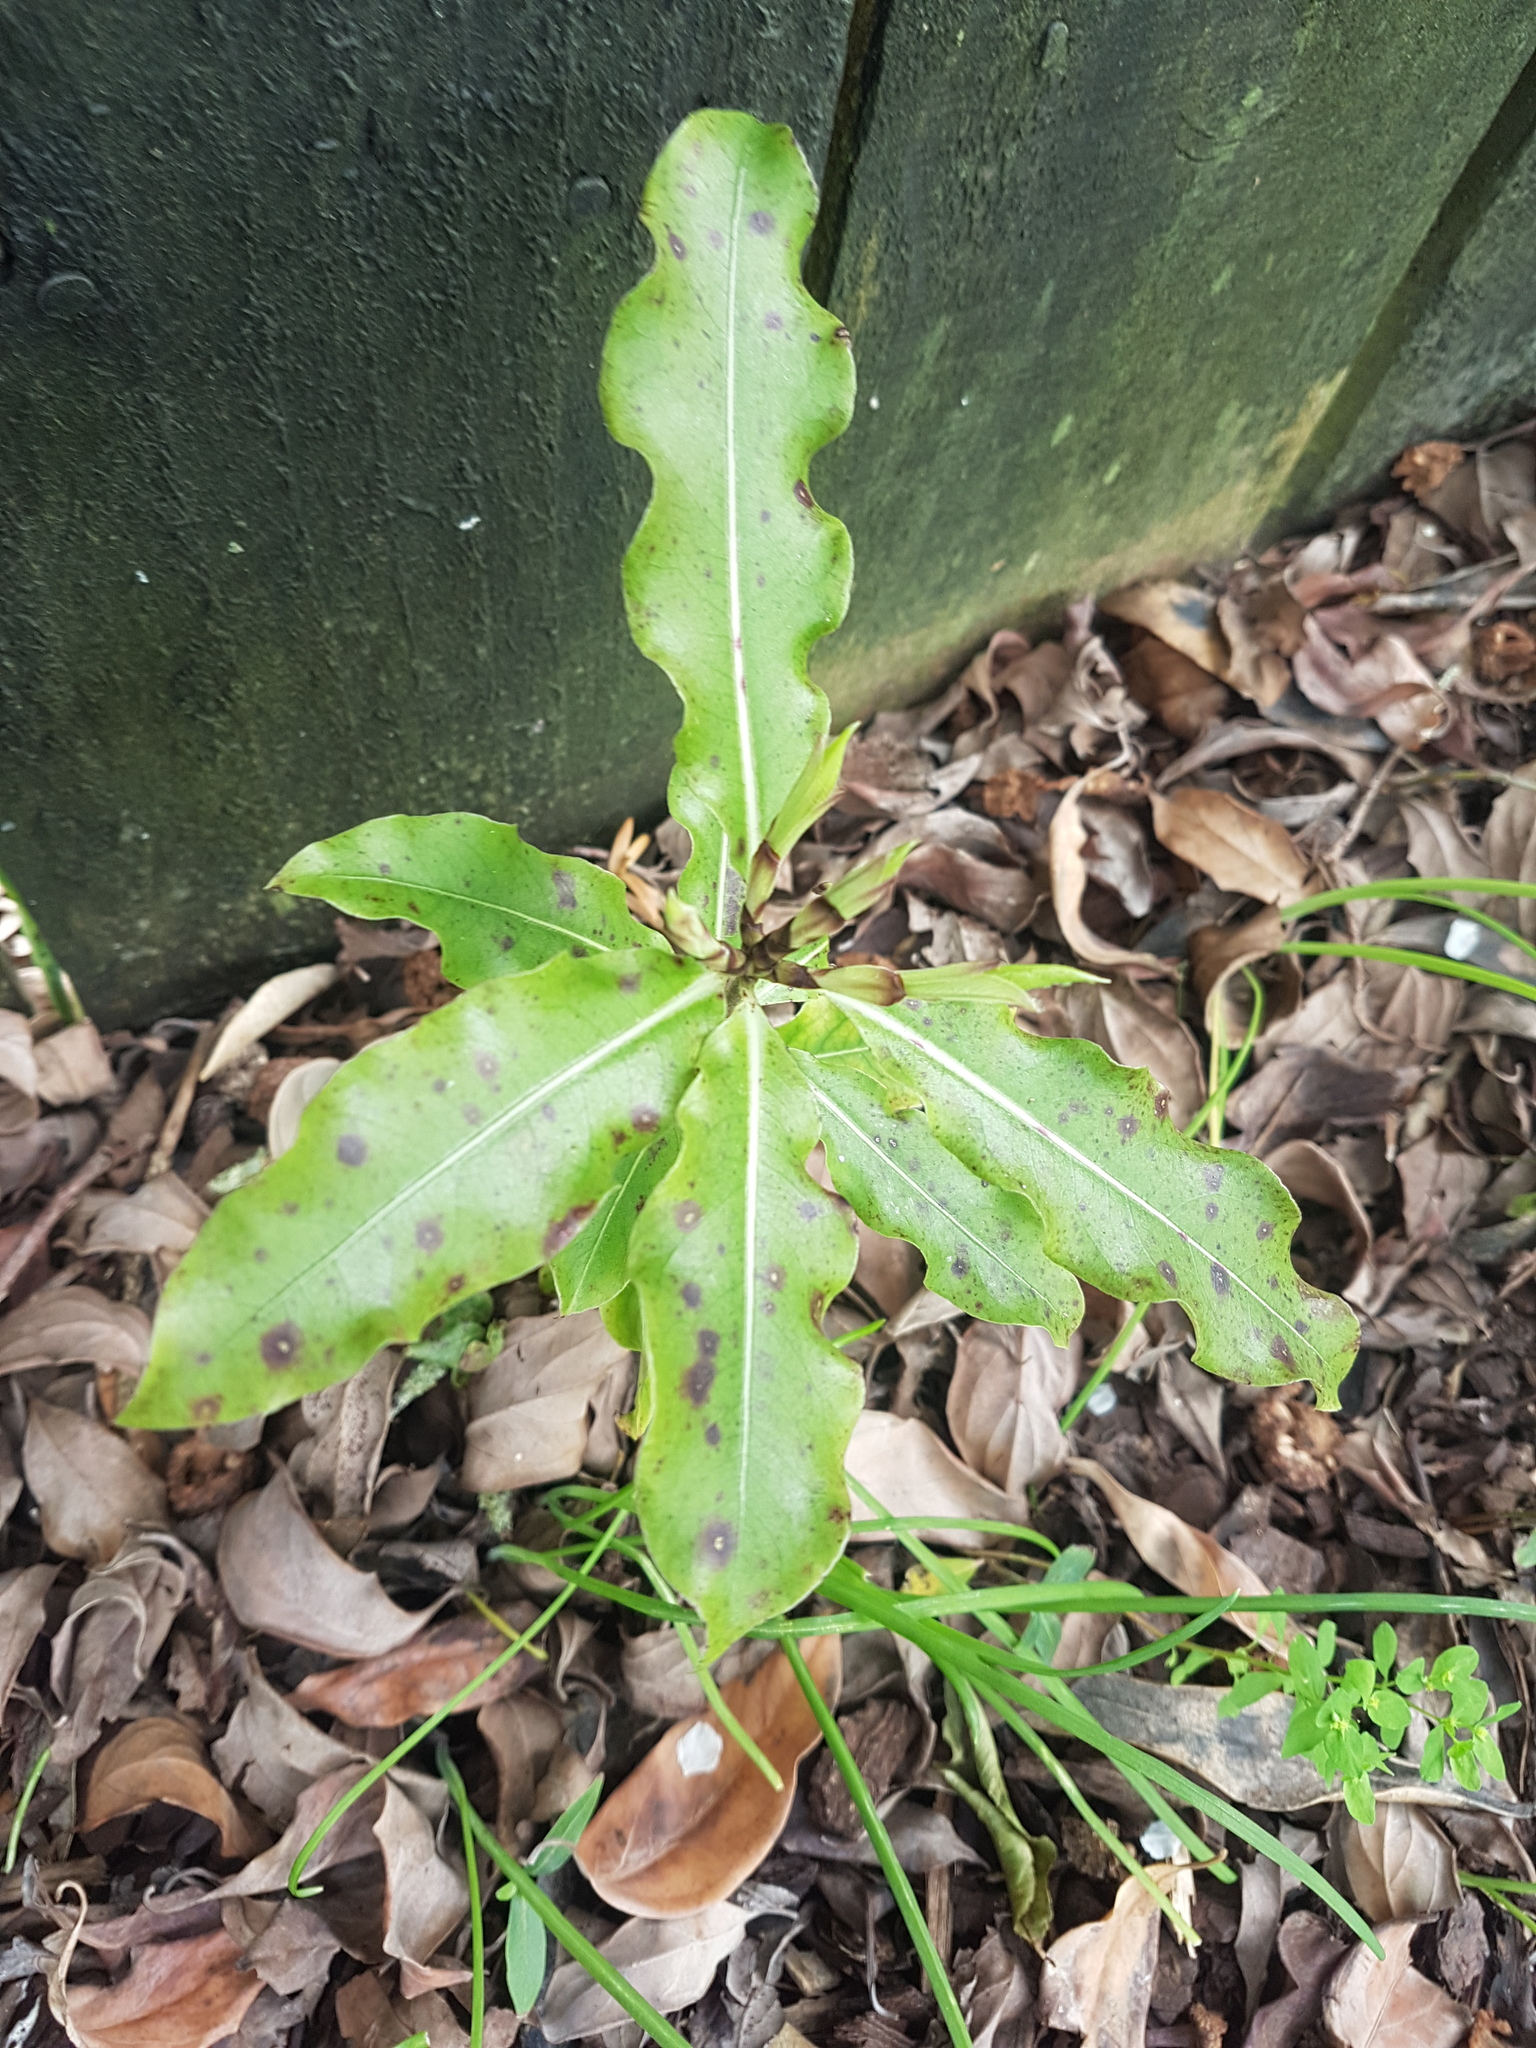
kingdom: Plantae
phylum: Tracheophyta
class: Magnoliopsida
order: Apiales
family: Pittosporaceae
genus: Pittosporum
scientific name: Pittosporum eugenioides
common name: Lemonwood
